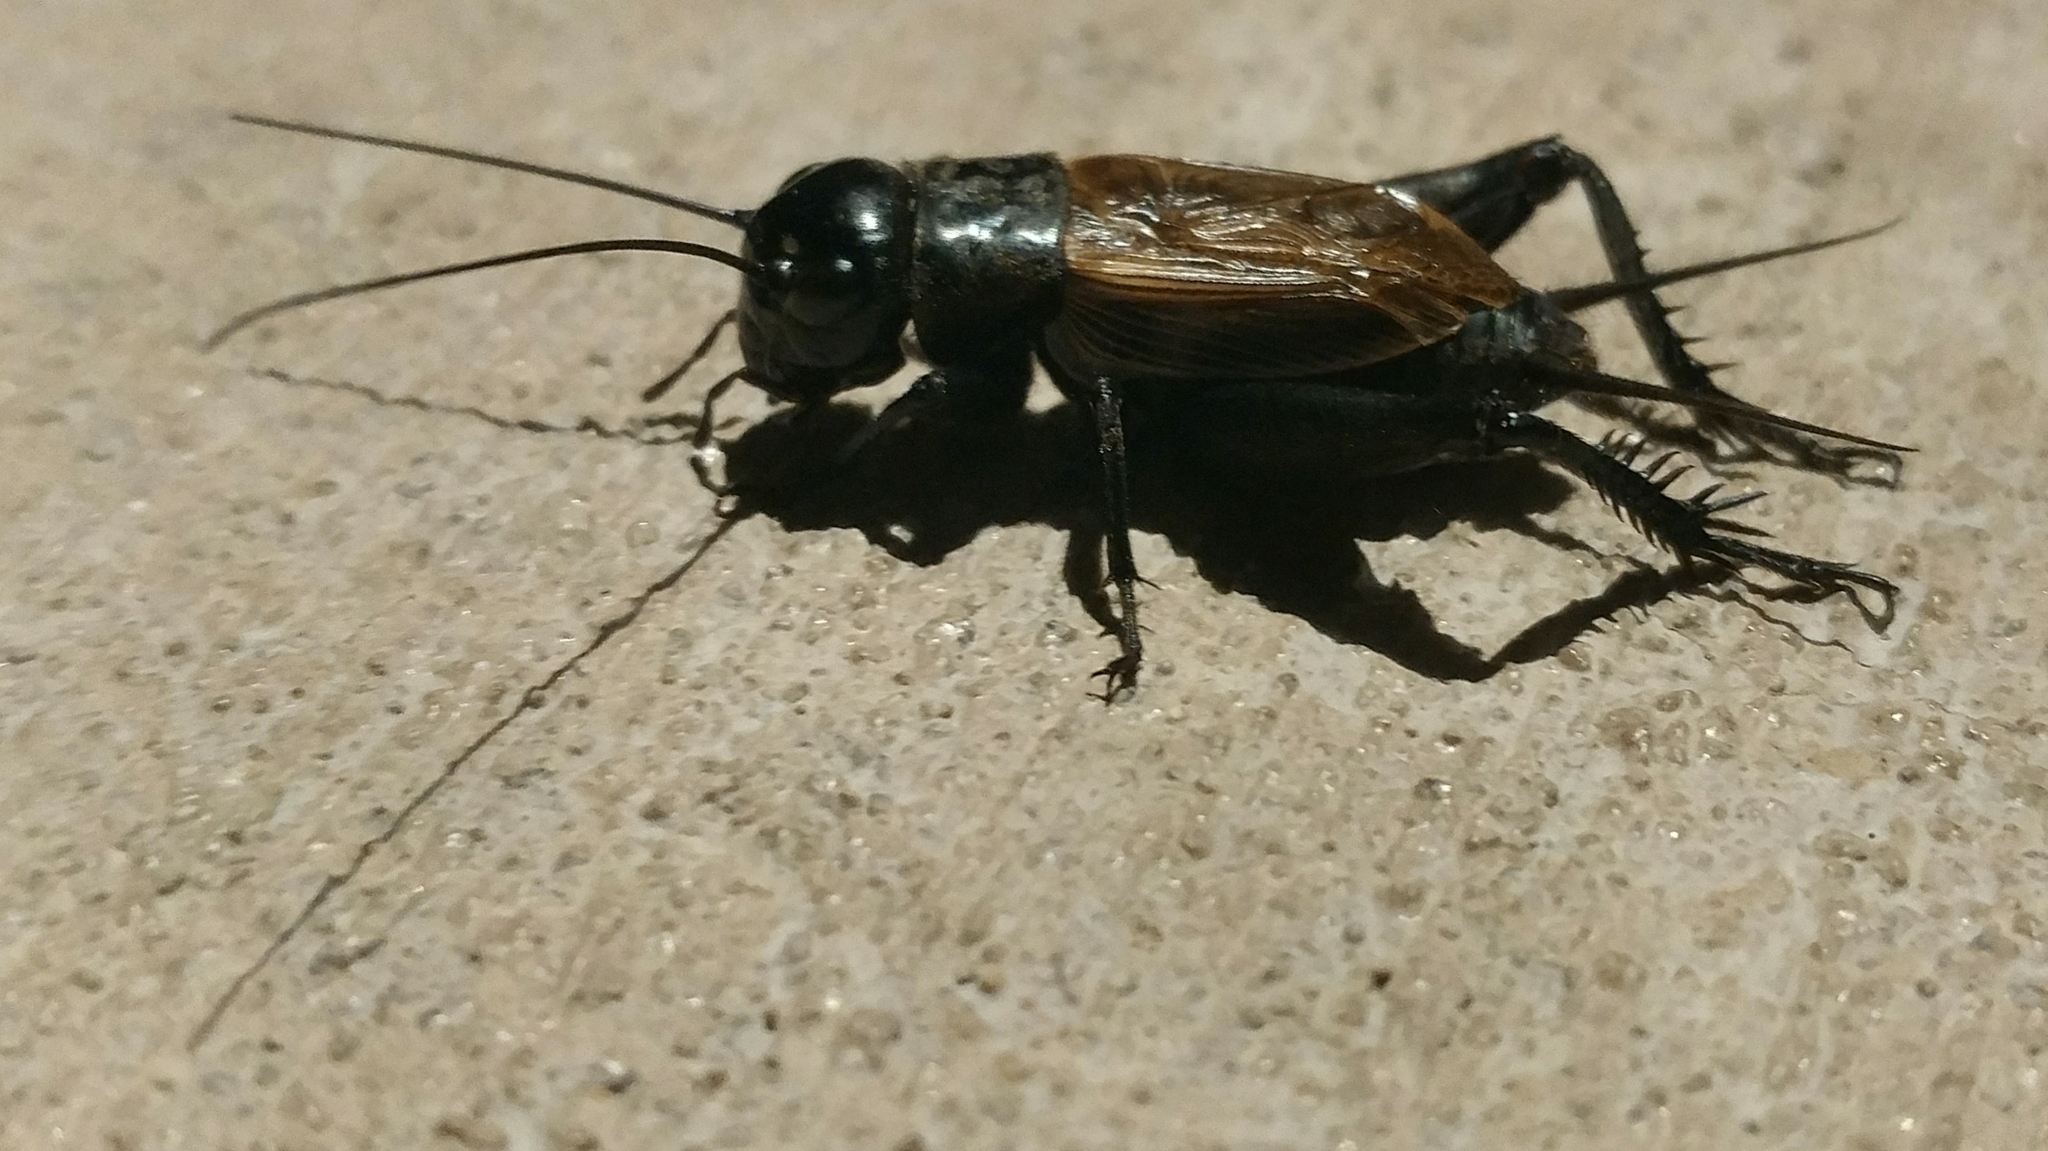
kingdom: Animalia
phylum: Arthropoda
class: Insecta
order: Orthoptera
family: Gryllidae
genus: Gryllus
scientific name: Gryllus
